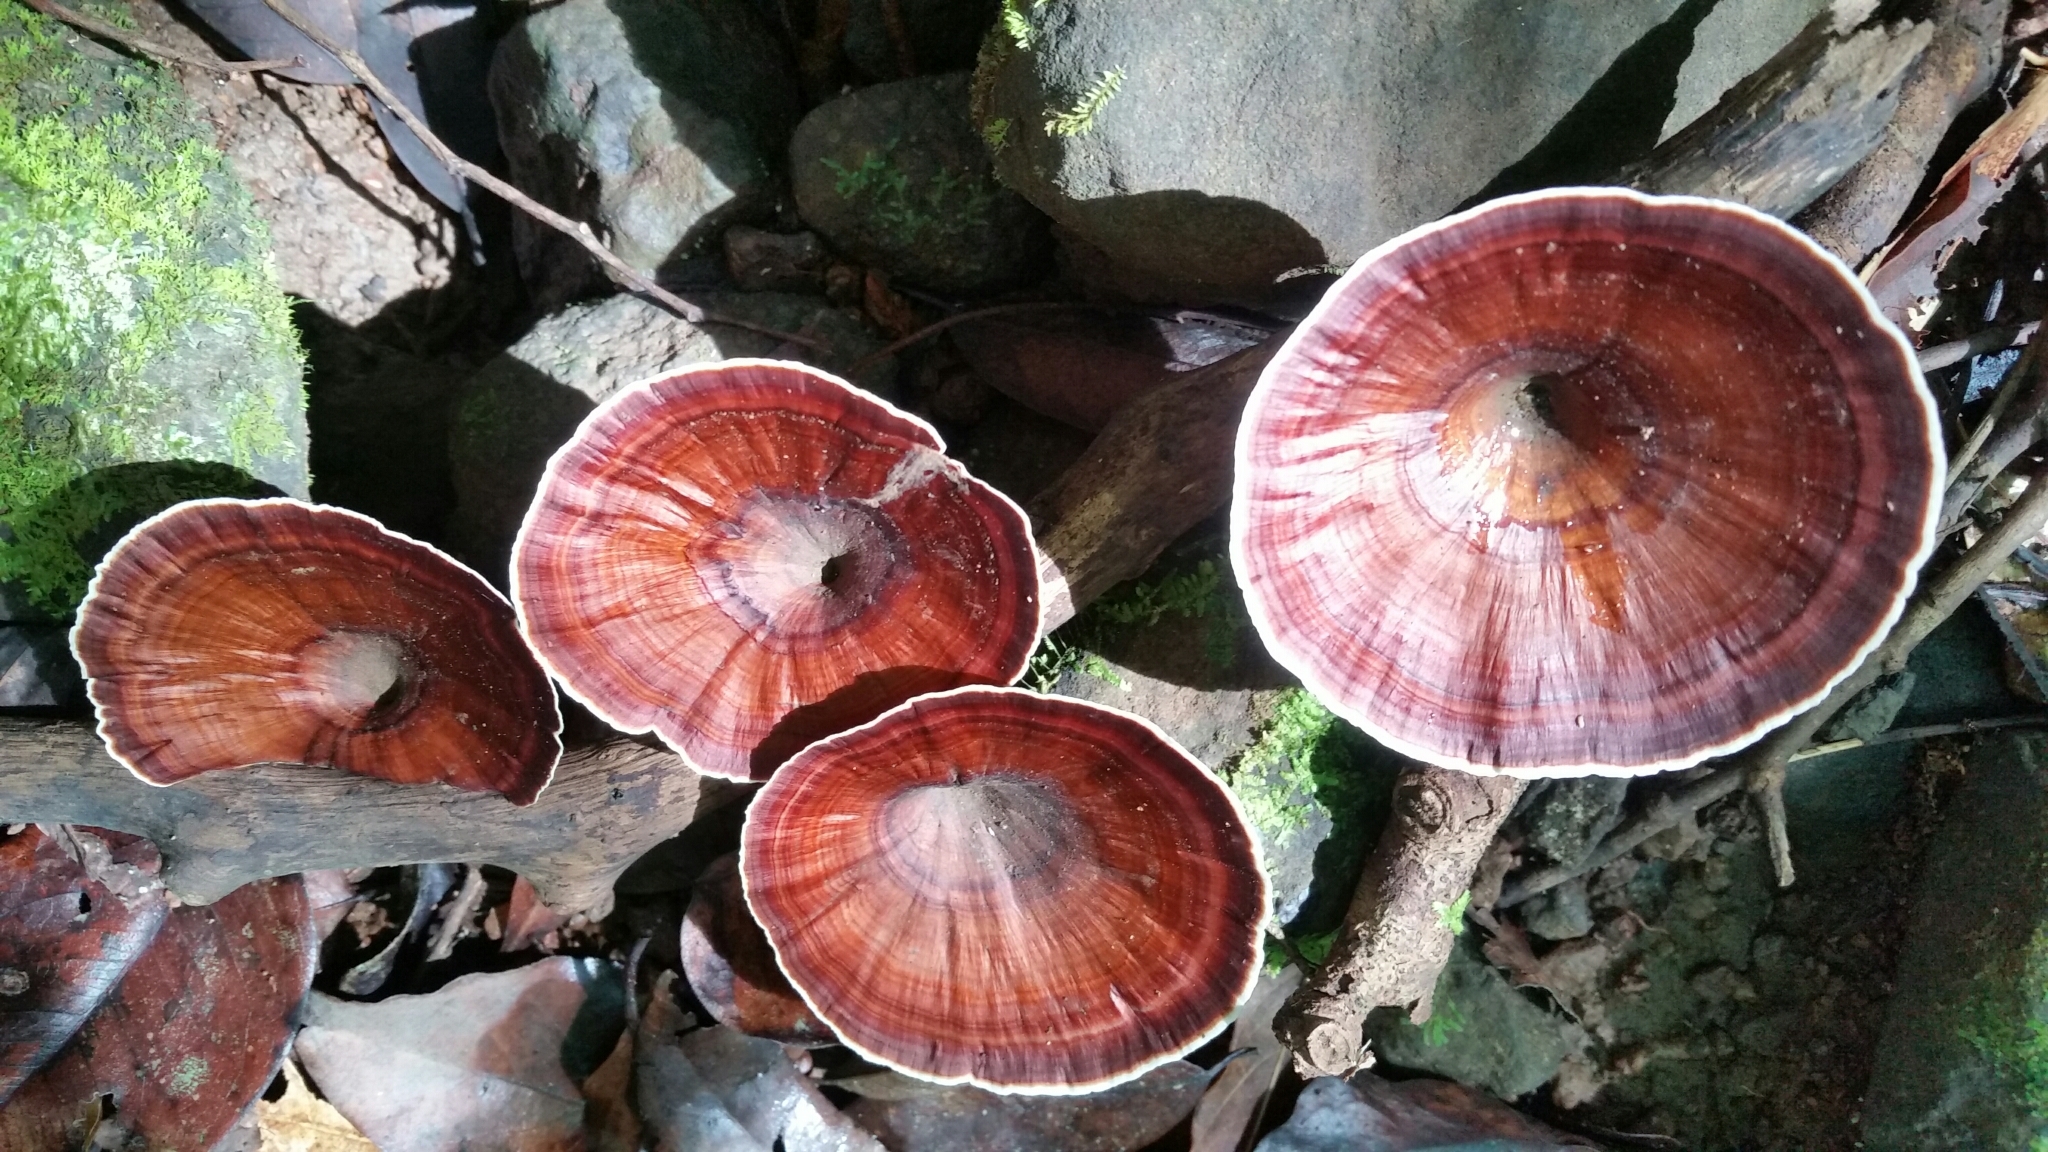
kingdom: Fungi
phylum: Basidiomycota
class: Agaricomycetes
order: Polyporales
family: Polyporaceae
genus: Microporus
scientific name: Microporus xanthopus
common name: Yellow-stemmed micropore
